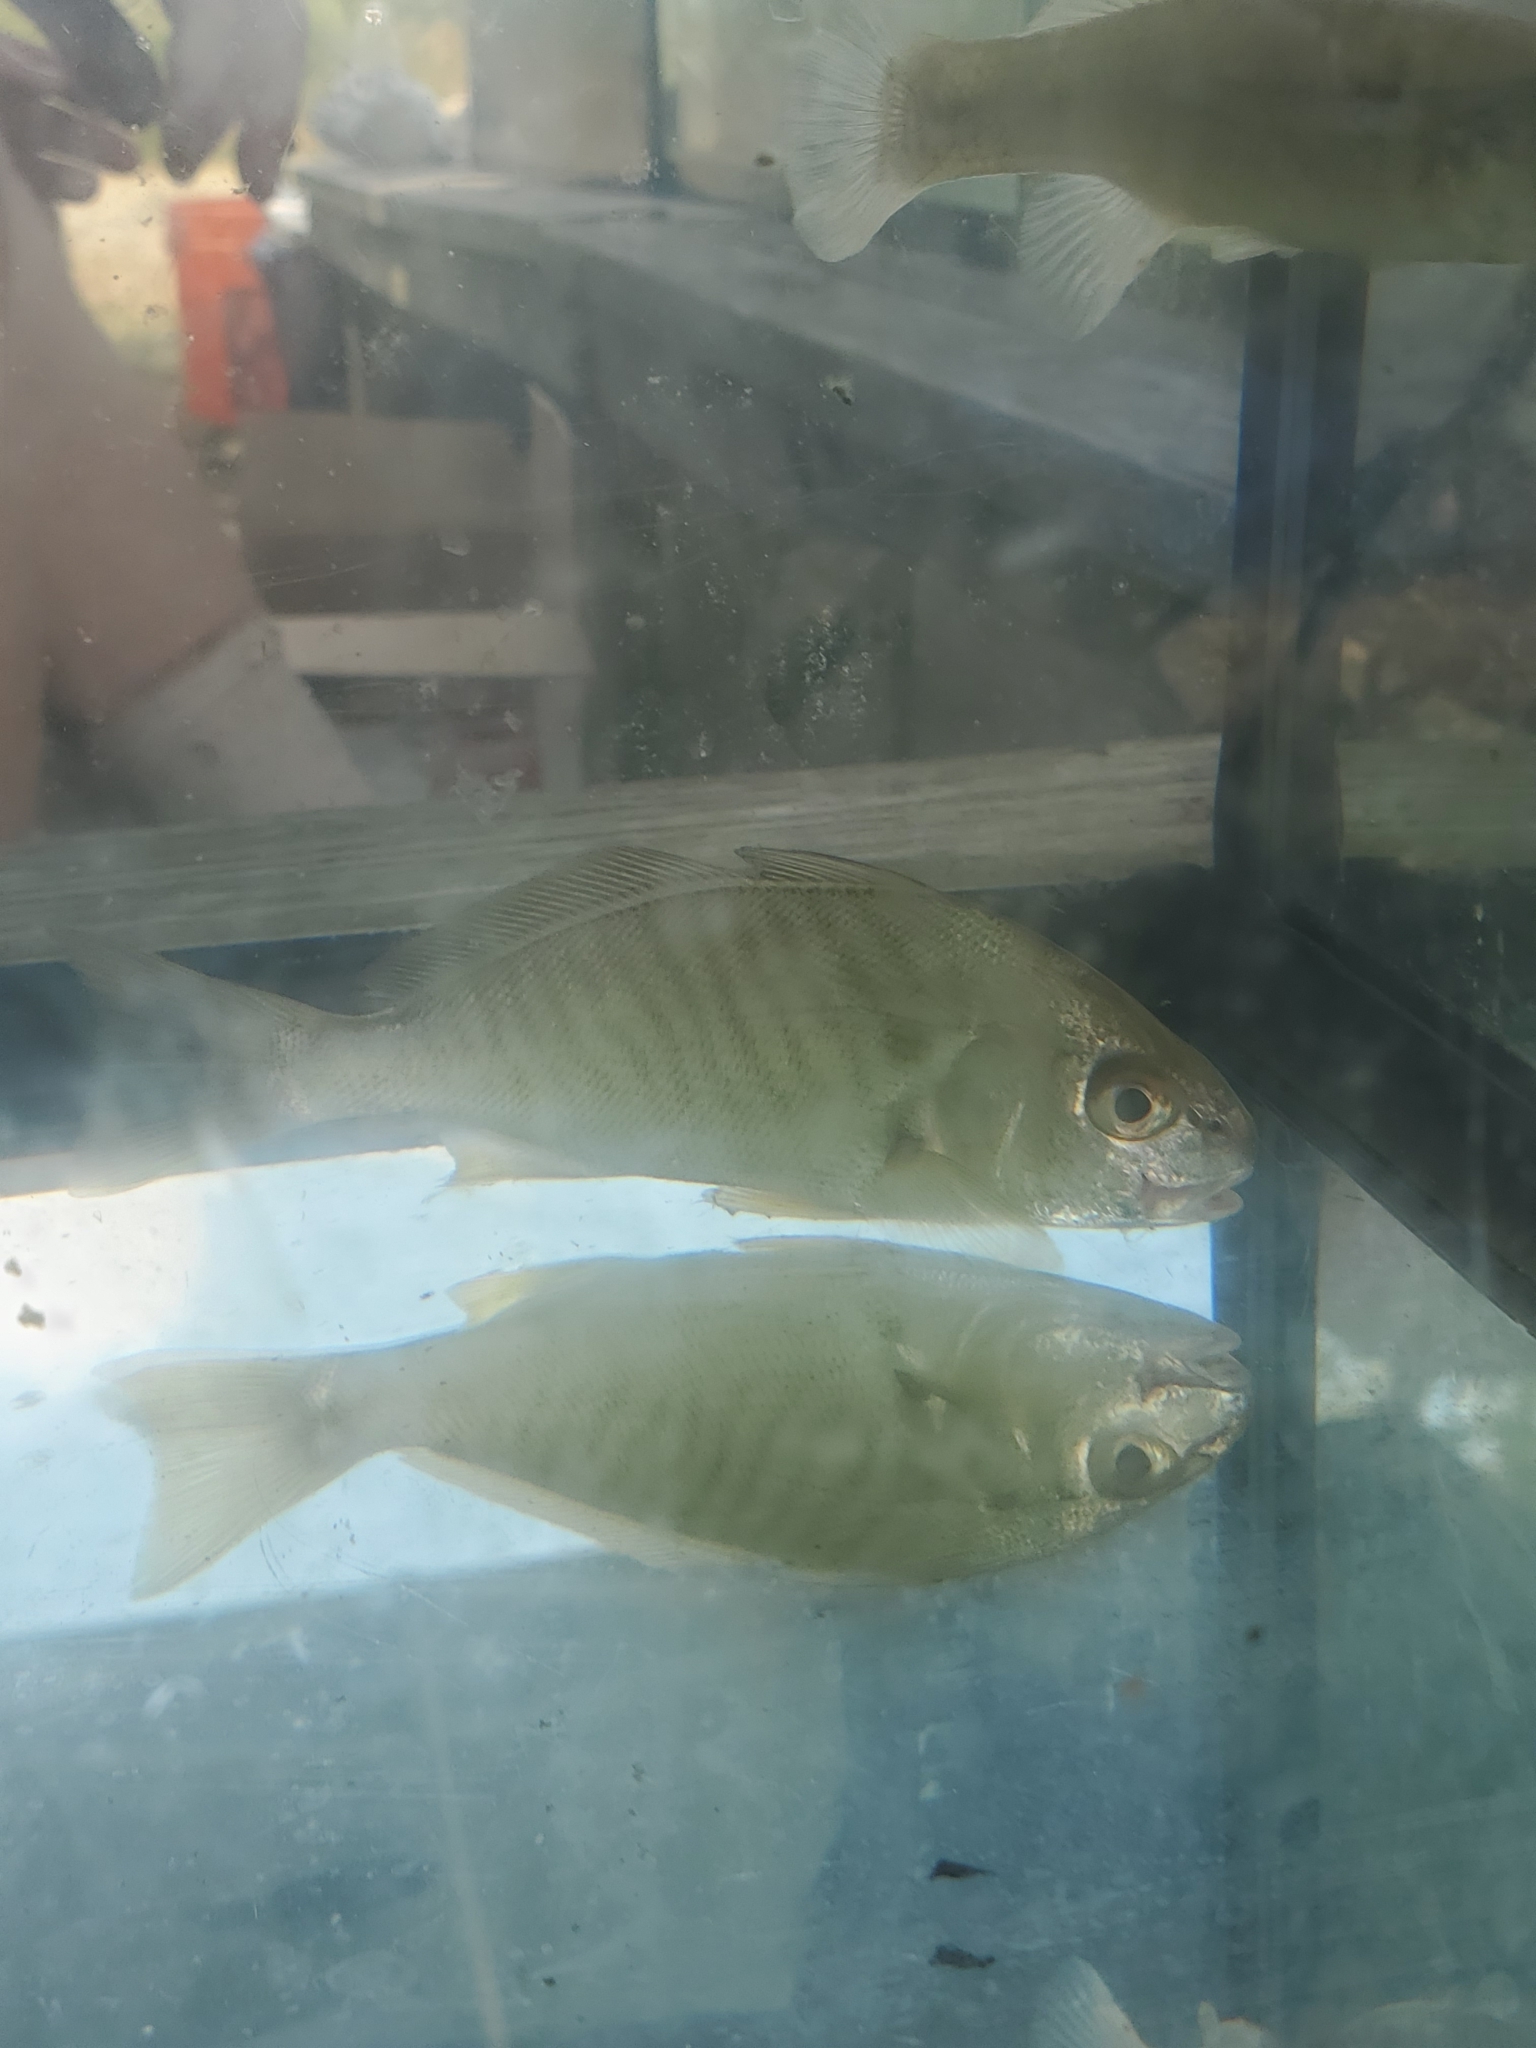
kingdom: Animalia
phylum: Chordata
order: Perciformes
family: Sciaenidae
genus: Leiostomus
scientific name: Leiostomus xanthurus
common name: Spot
